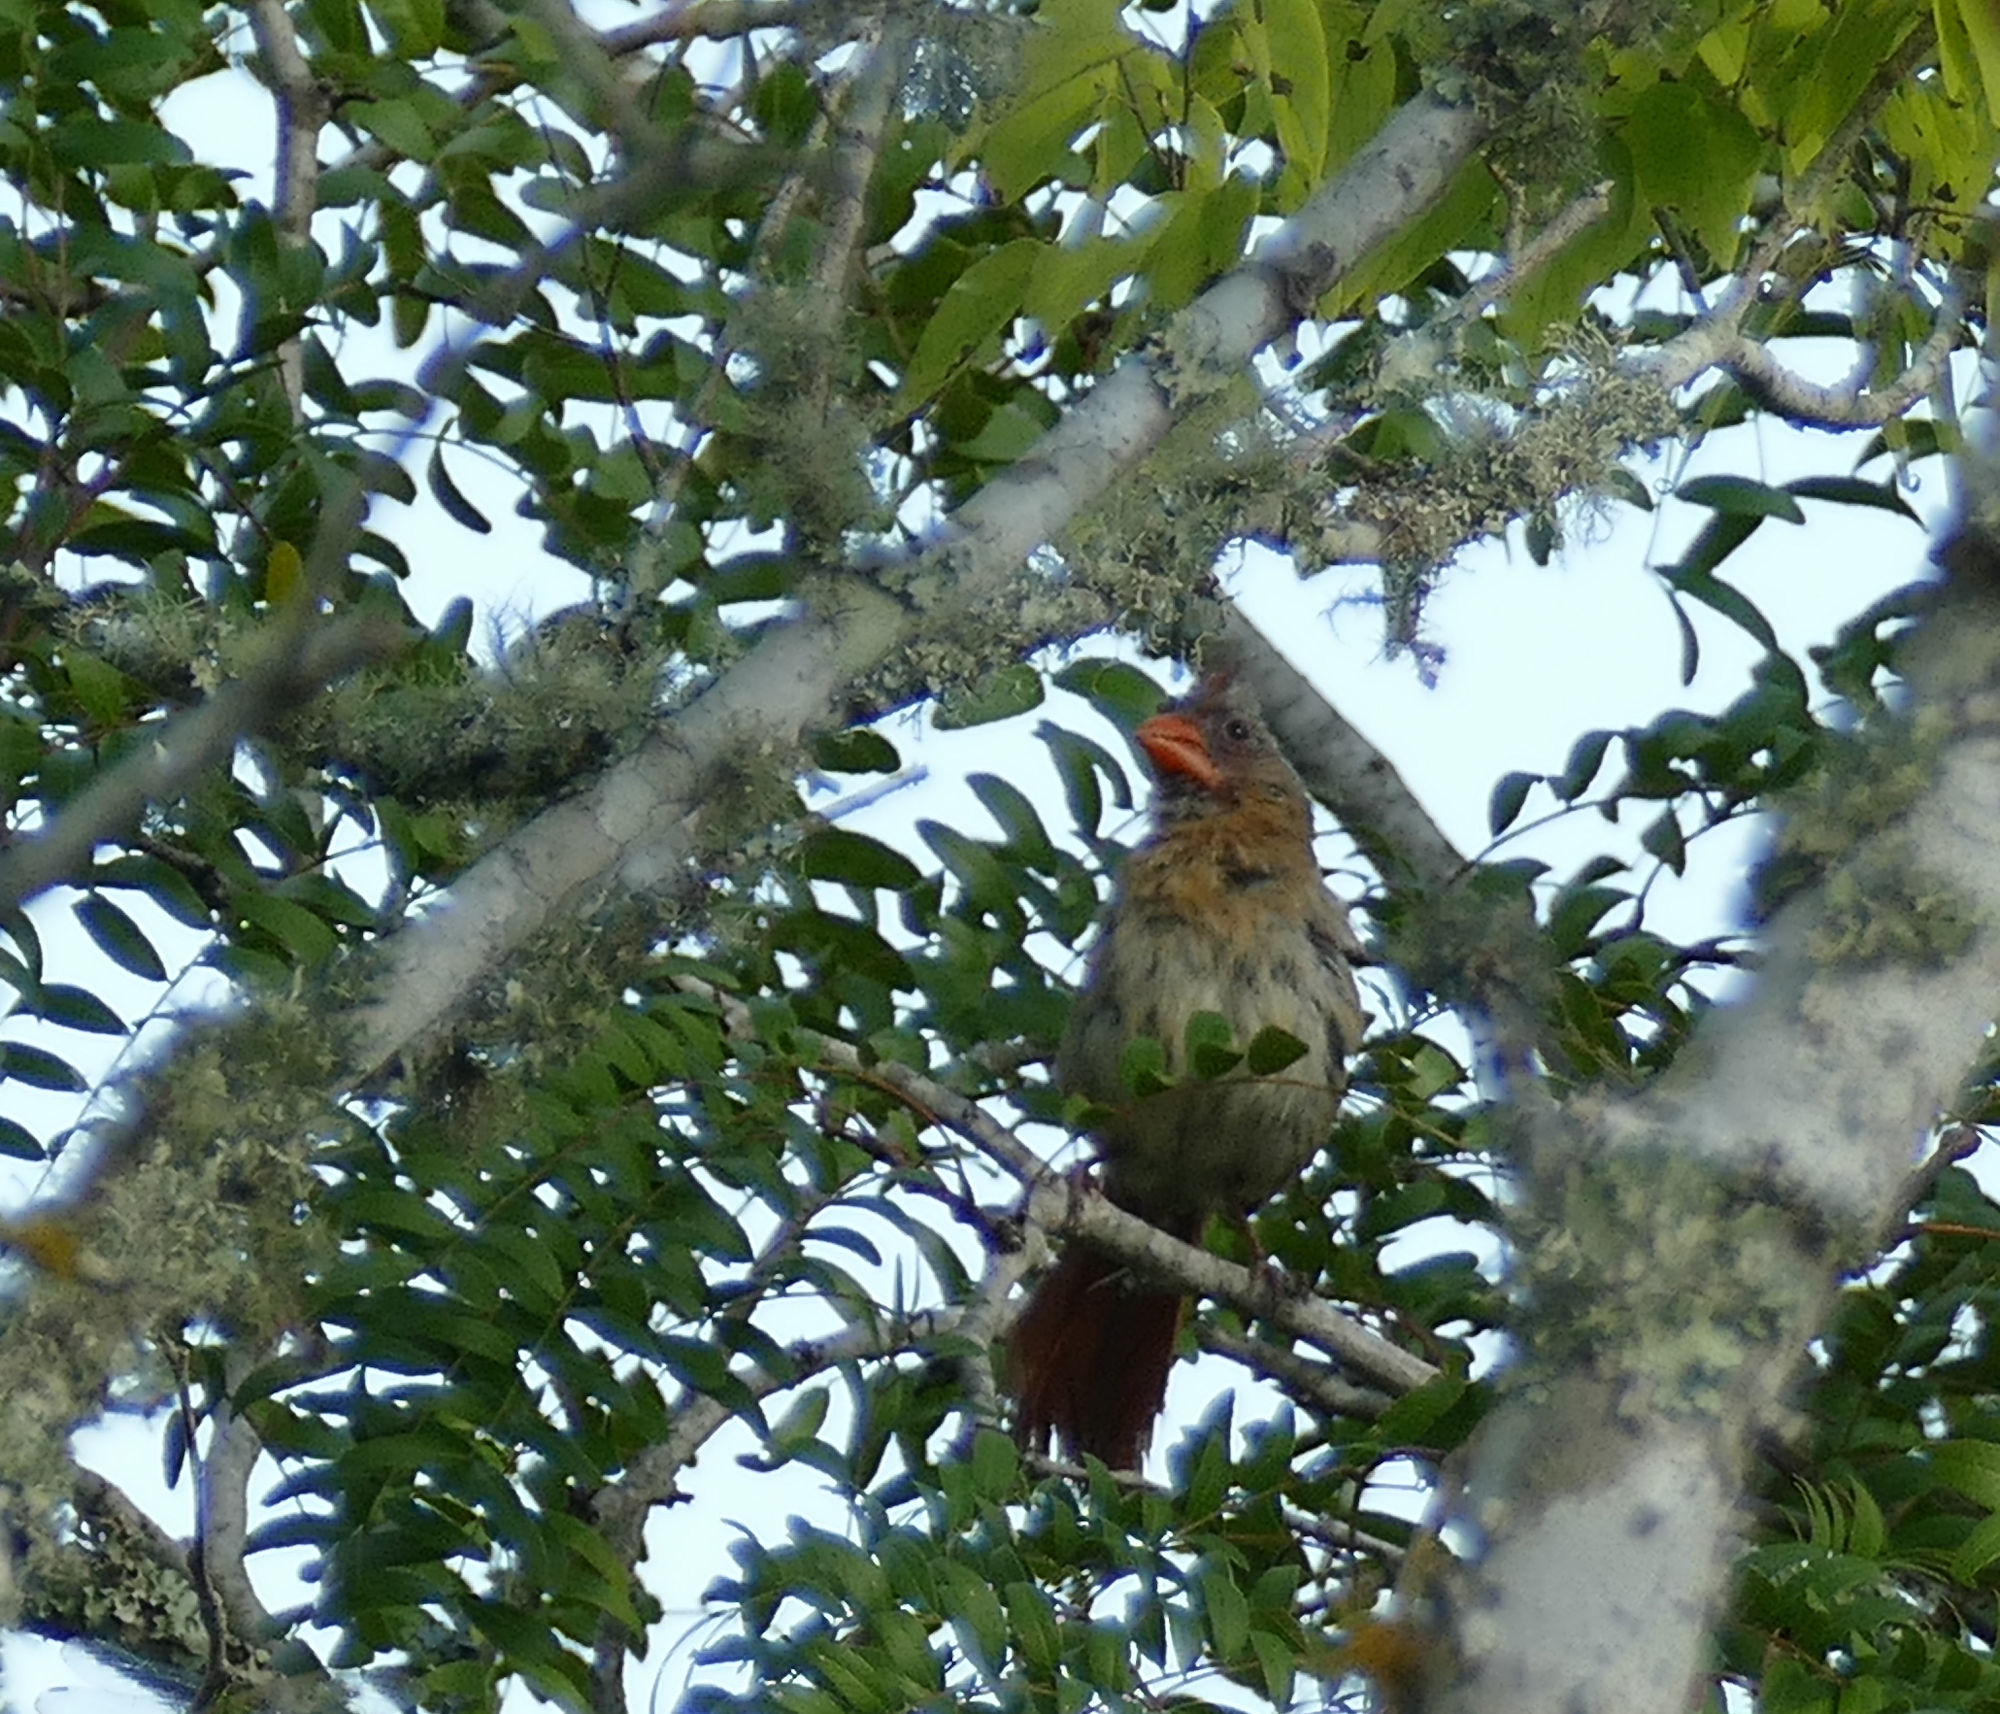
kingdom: Animalia
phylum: Chordata
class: Aves
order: Passeriformes
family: Cardinalidae
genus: Cardinalis
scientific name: Cardinalis cardinalis
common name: Northern cardinal
